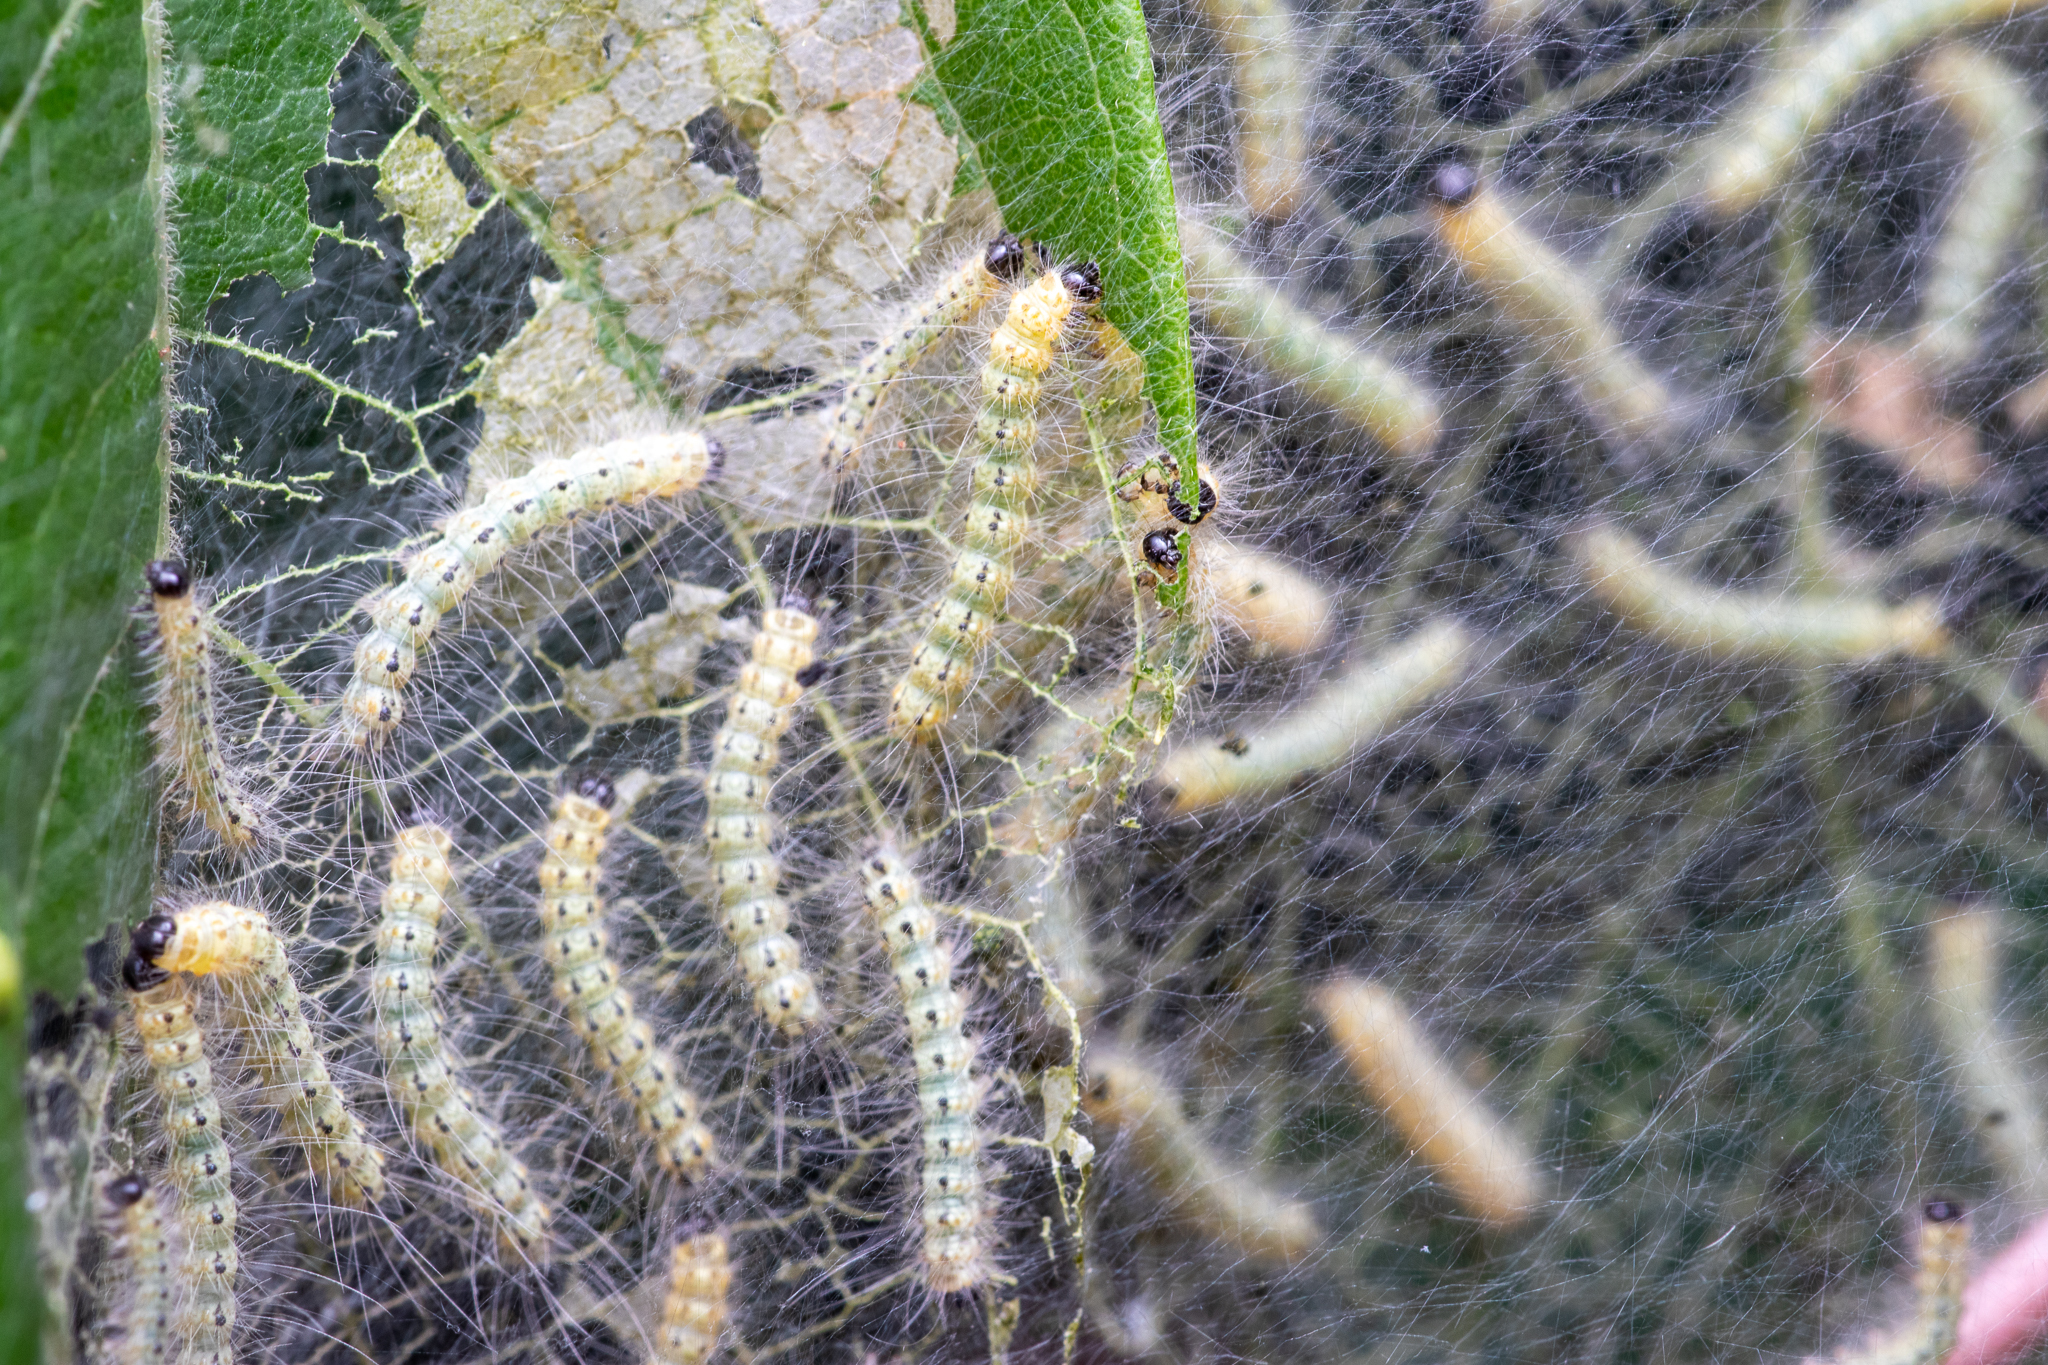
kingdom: Animalia
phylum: Arthropoda
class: Insecta
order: Lepidoptera
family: Erebidae
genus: Hyphantria
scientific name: Hyphantria cunea
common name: American white moth
